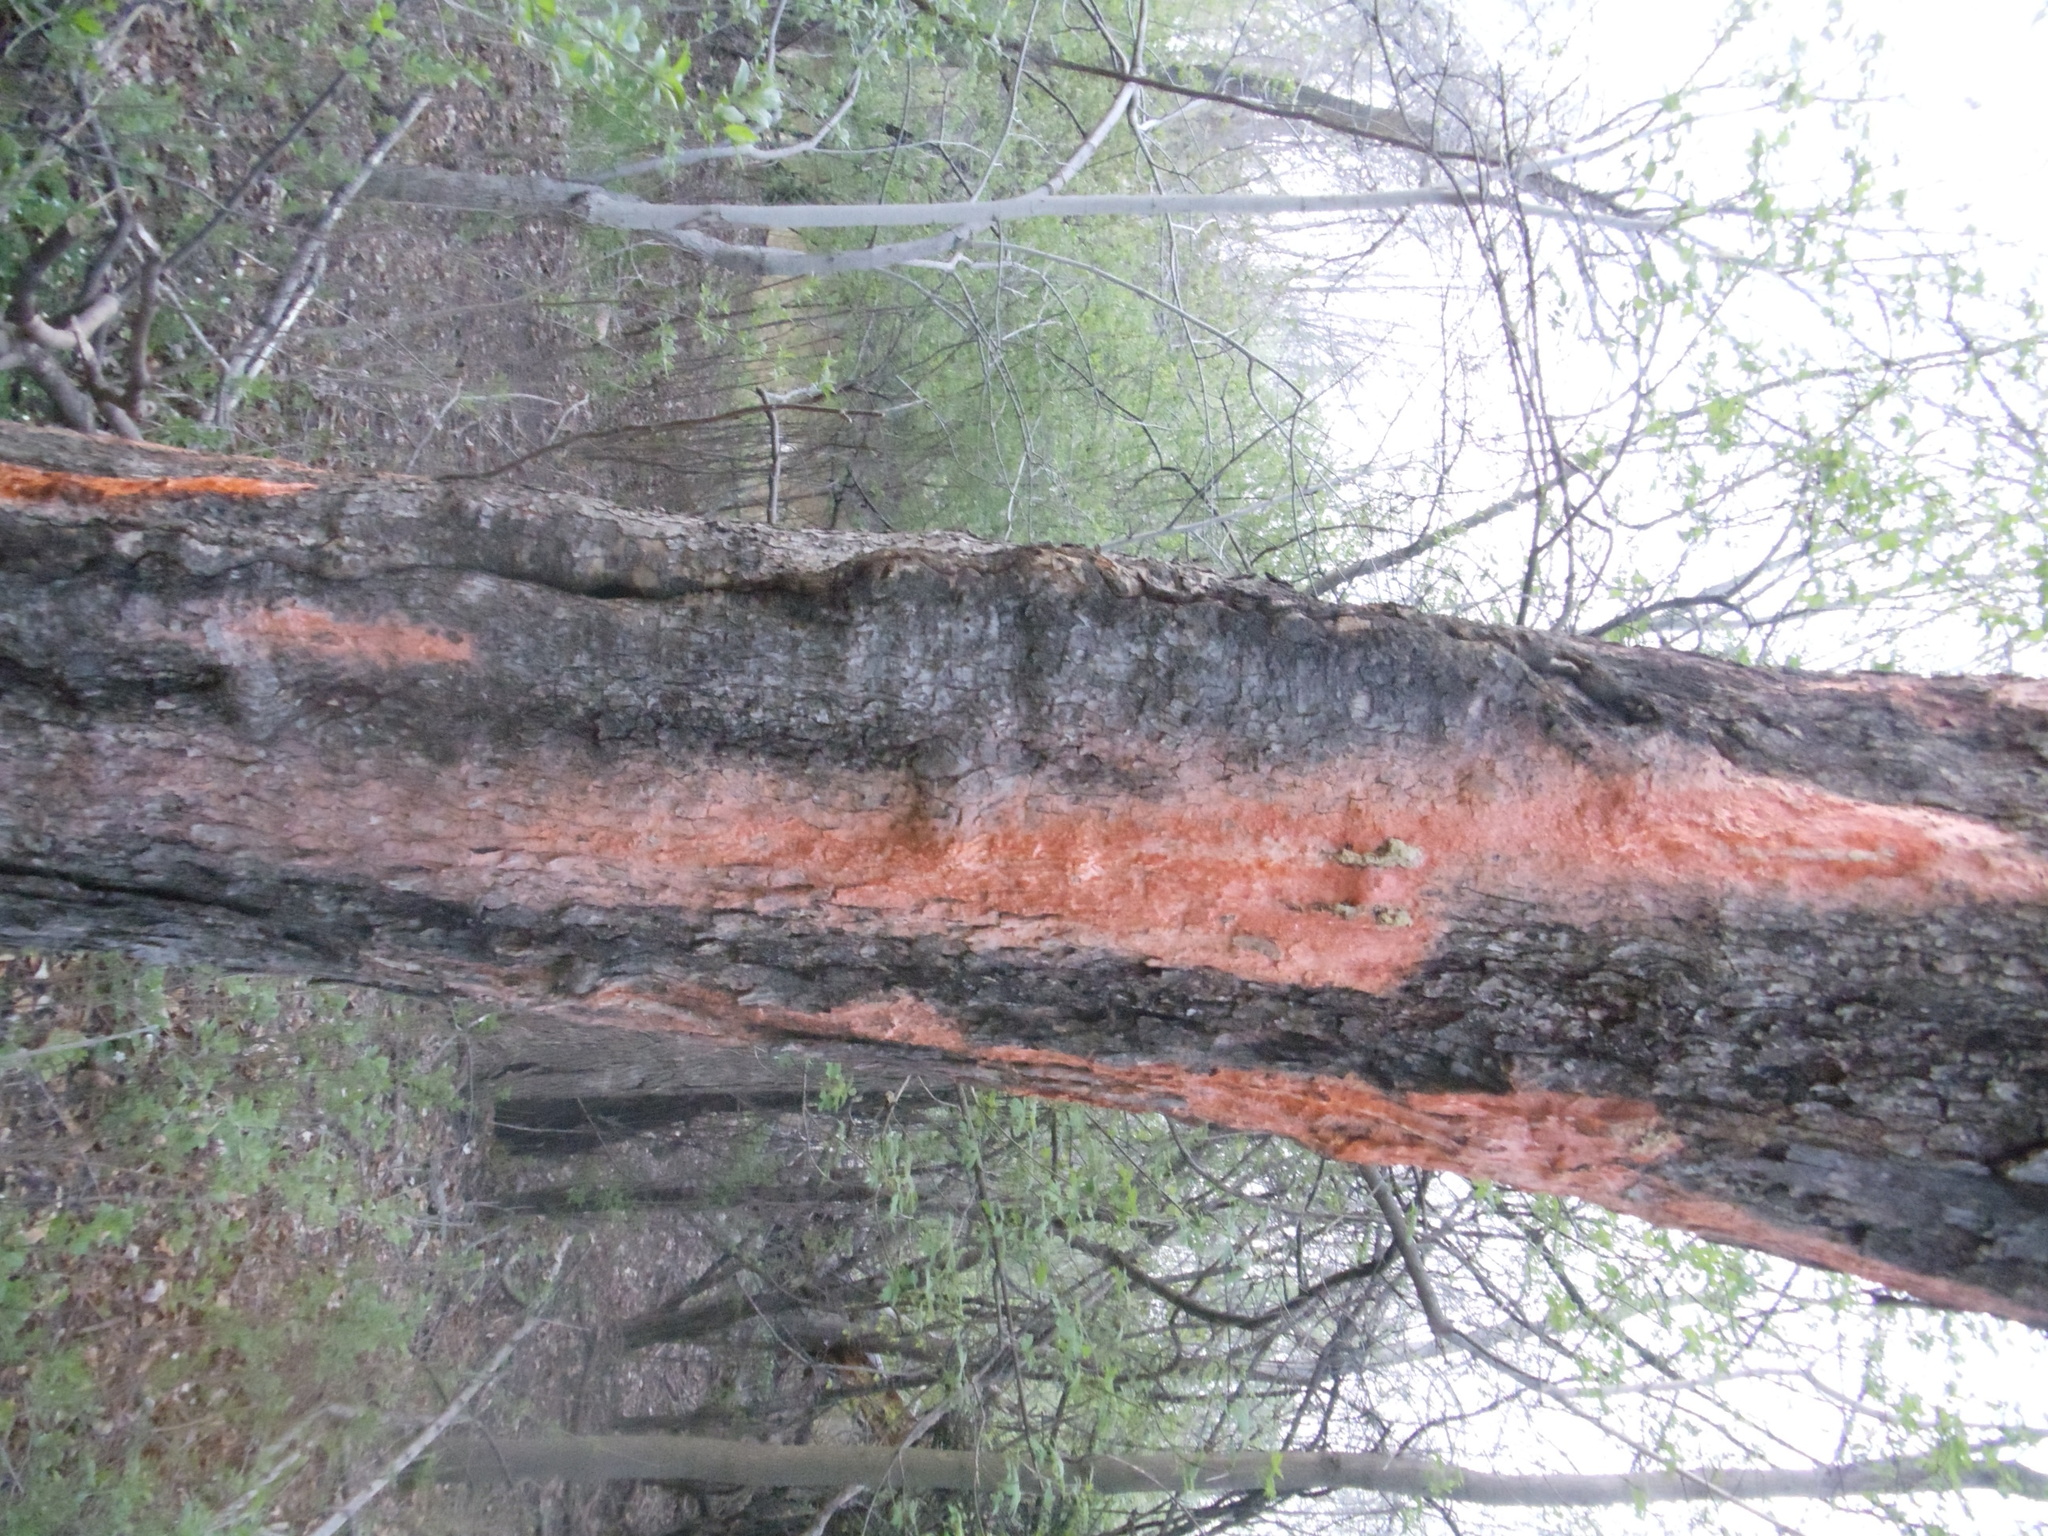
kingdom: Fungi
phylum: Basidiomycota
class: Tremellomycetes
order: Cystofilobasidiales
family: Cystofilobasidiaceae
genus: Cystofilobasidium
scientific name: Cystofilobasidium macerans
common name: Sap yeast
